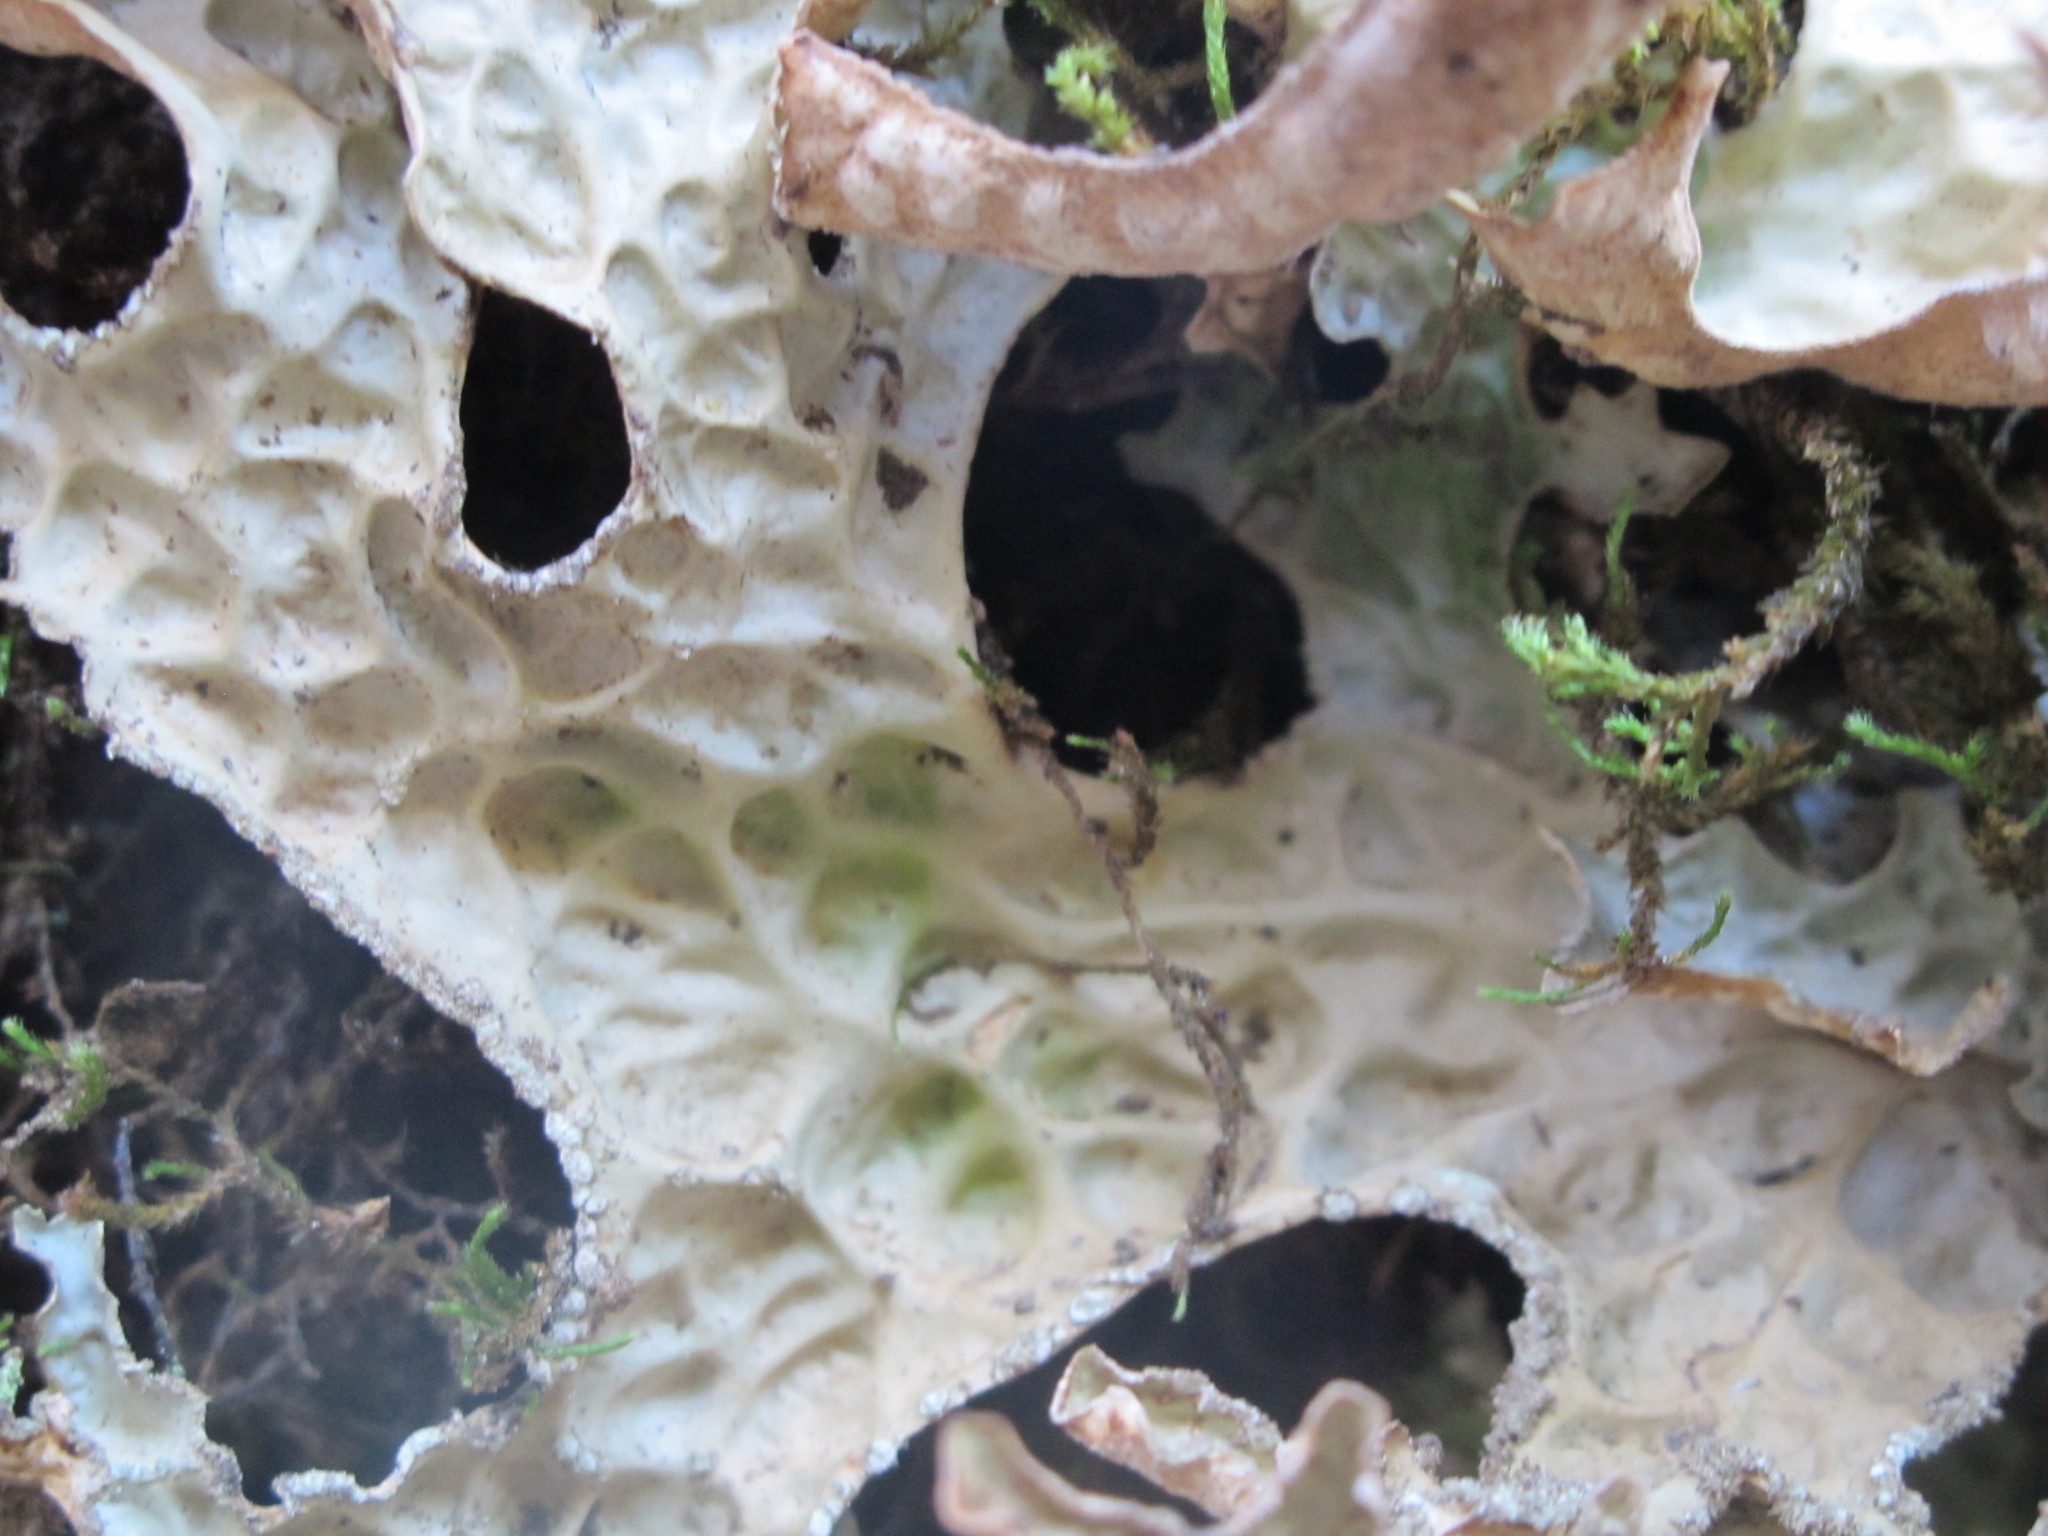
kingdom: Fungi
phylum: Ascomycota
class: Lecanoromycetes
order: Peltigerales
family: Lobariaceae
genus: Lobaria
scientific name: Lobaria pulmonaria
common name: Lungwort
